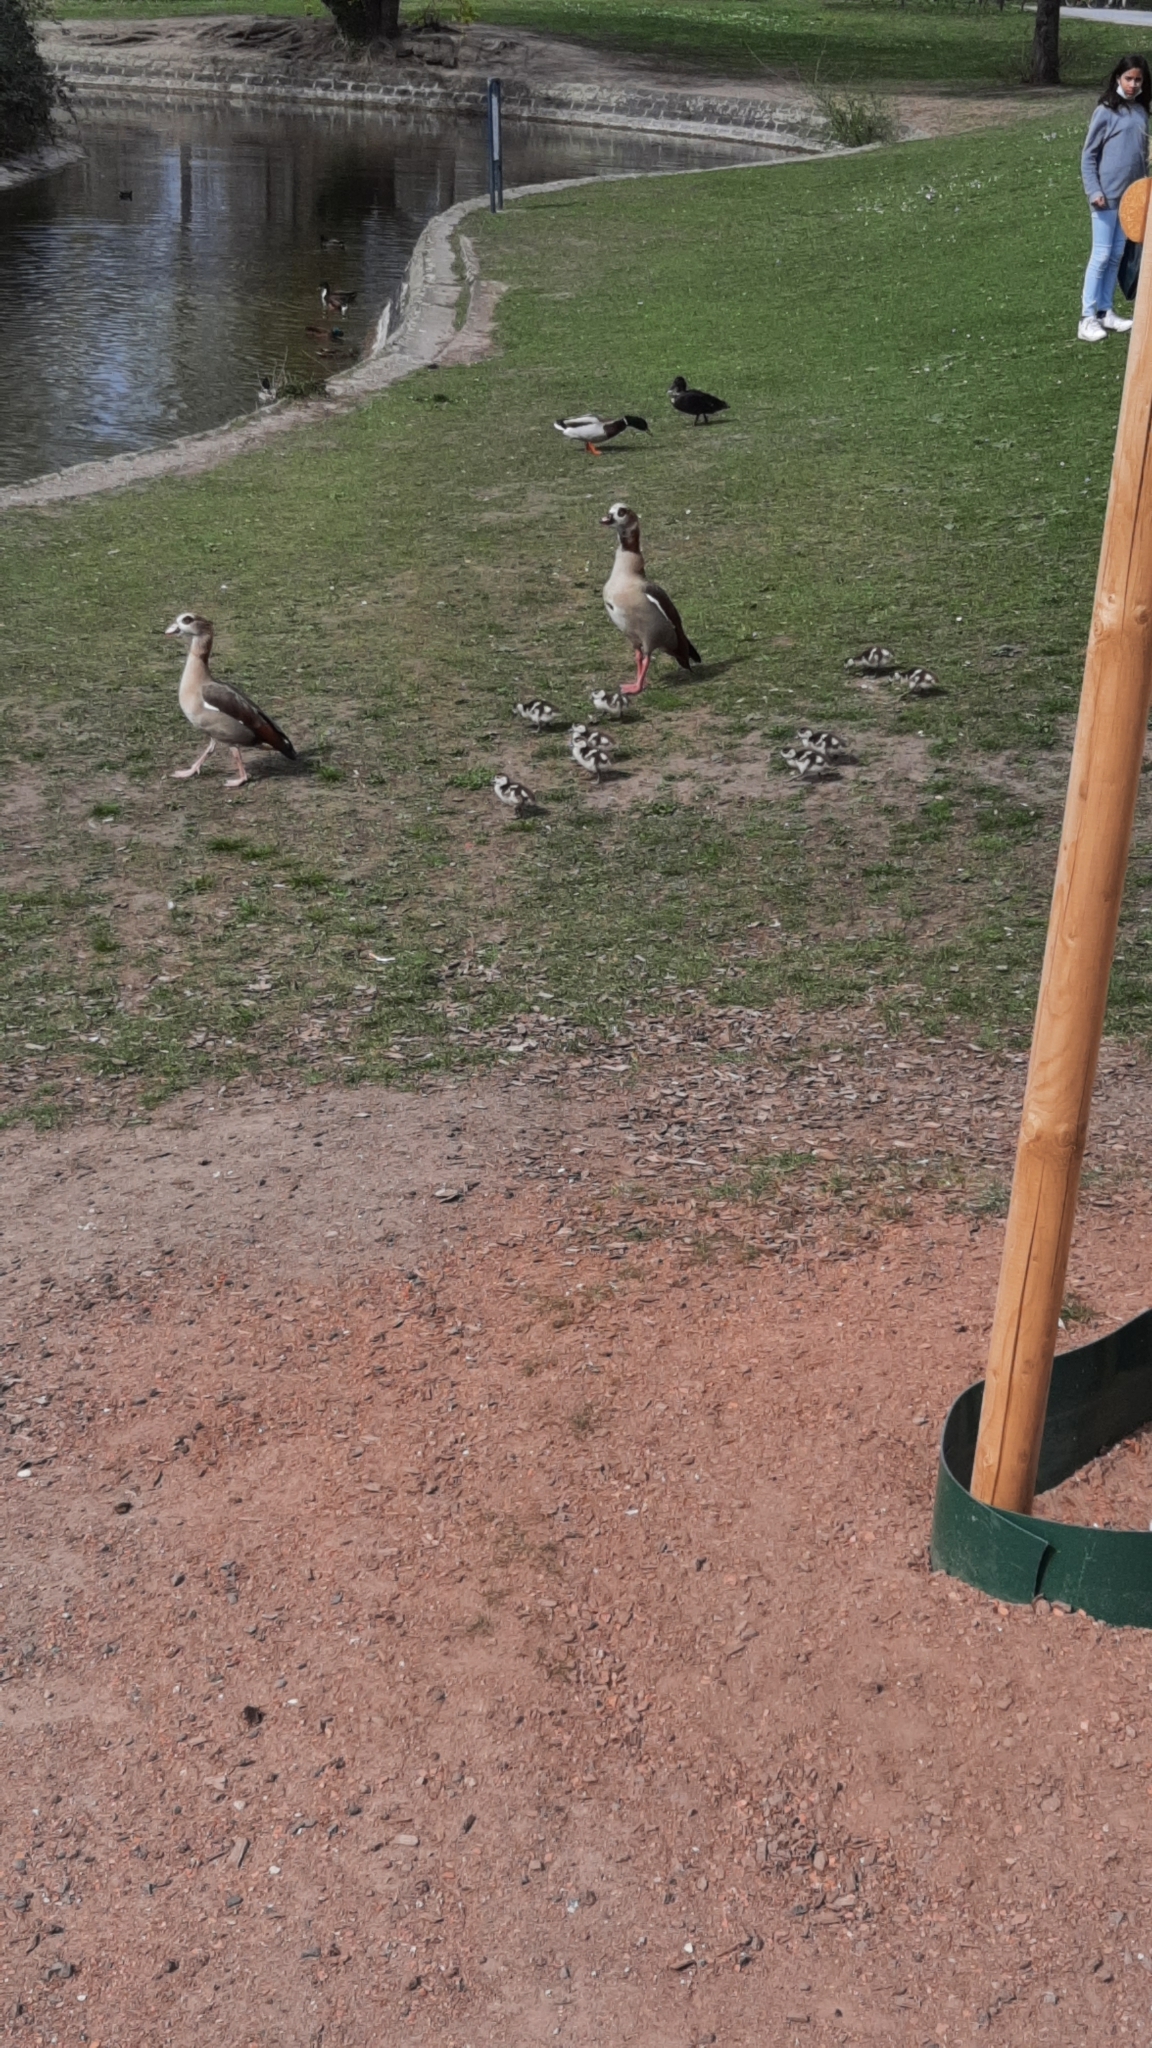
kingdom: Animalia
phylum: Chordata
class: Aves
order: Anseriformes
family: Anatidae
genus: Alopochen
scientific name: Alopochen aegyptiaca
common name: Egyptian goose
